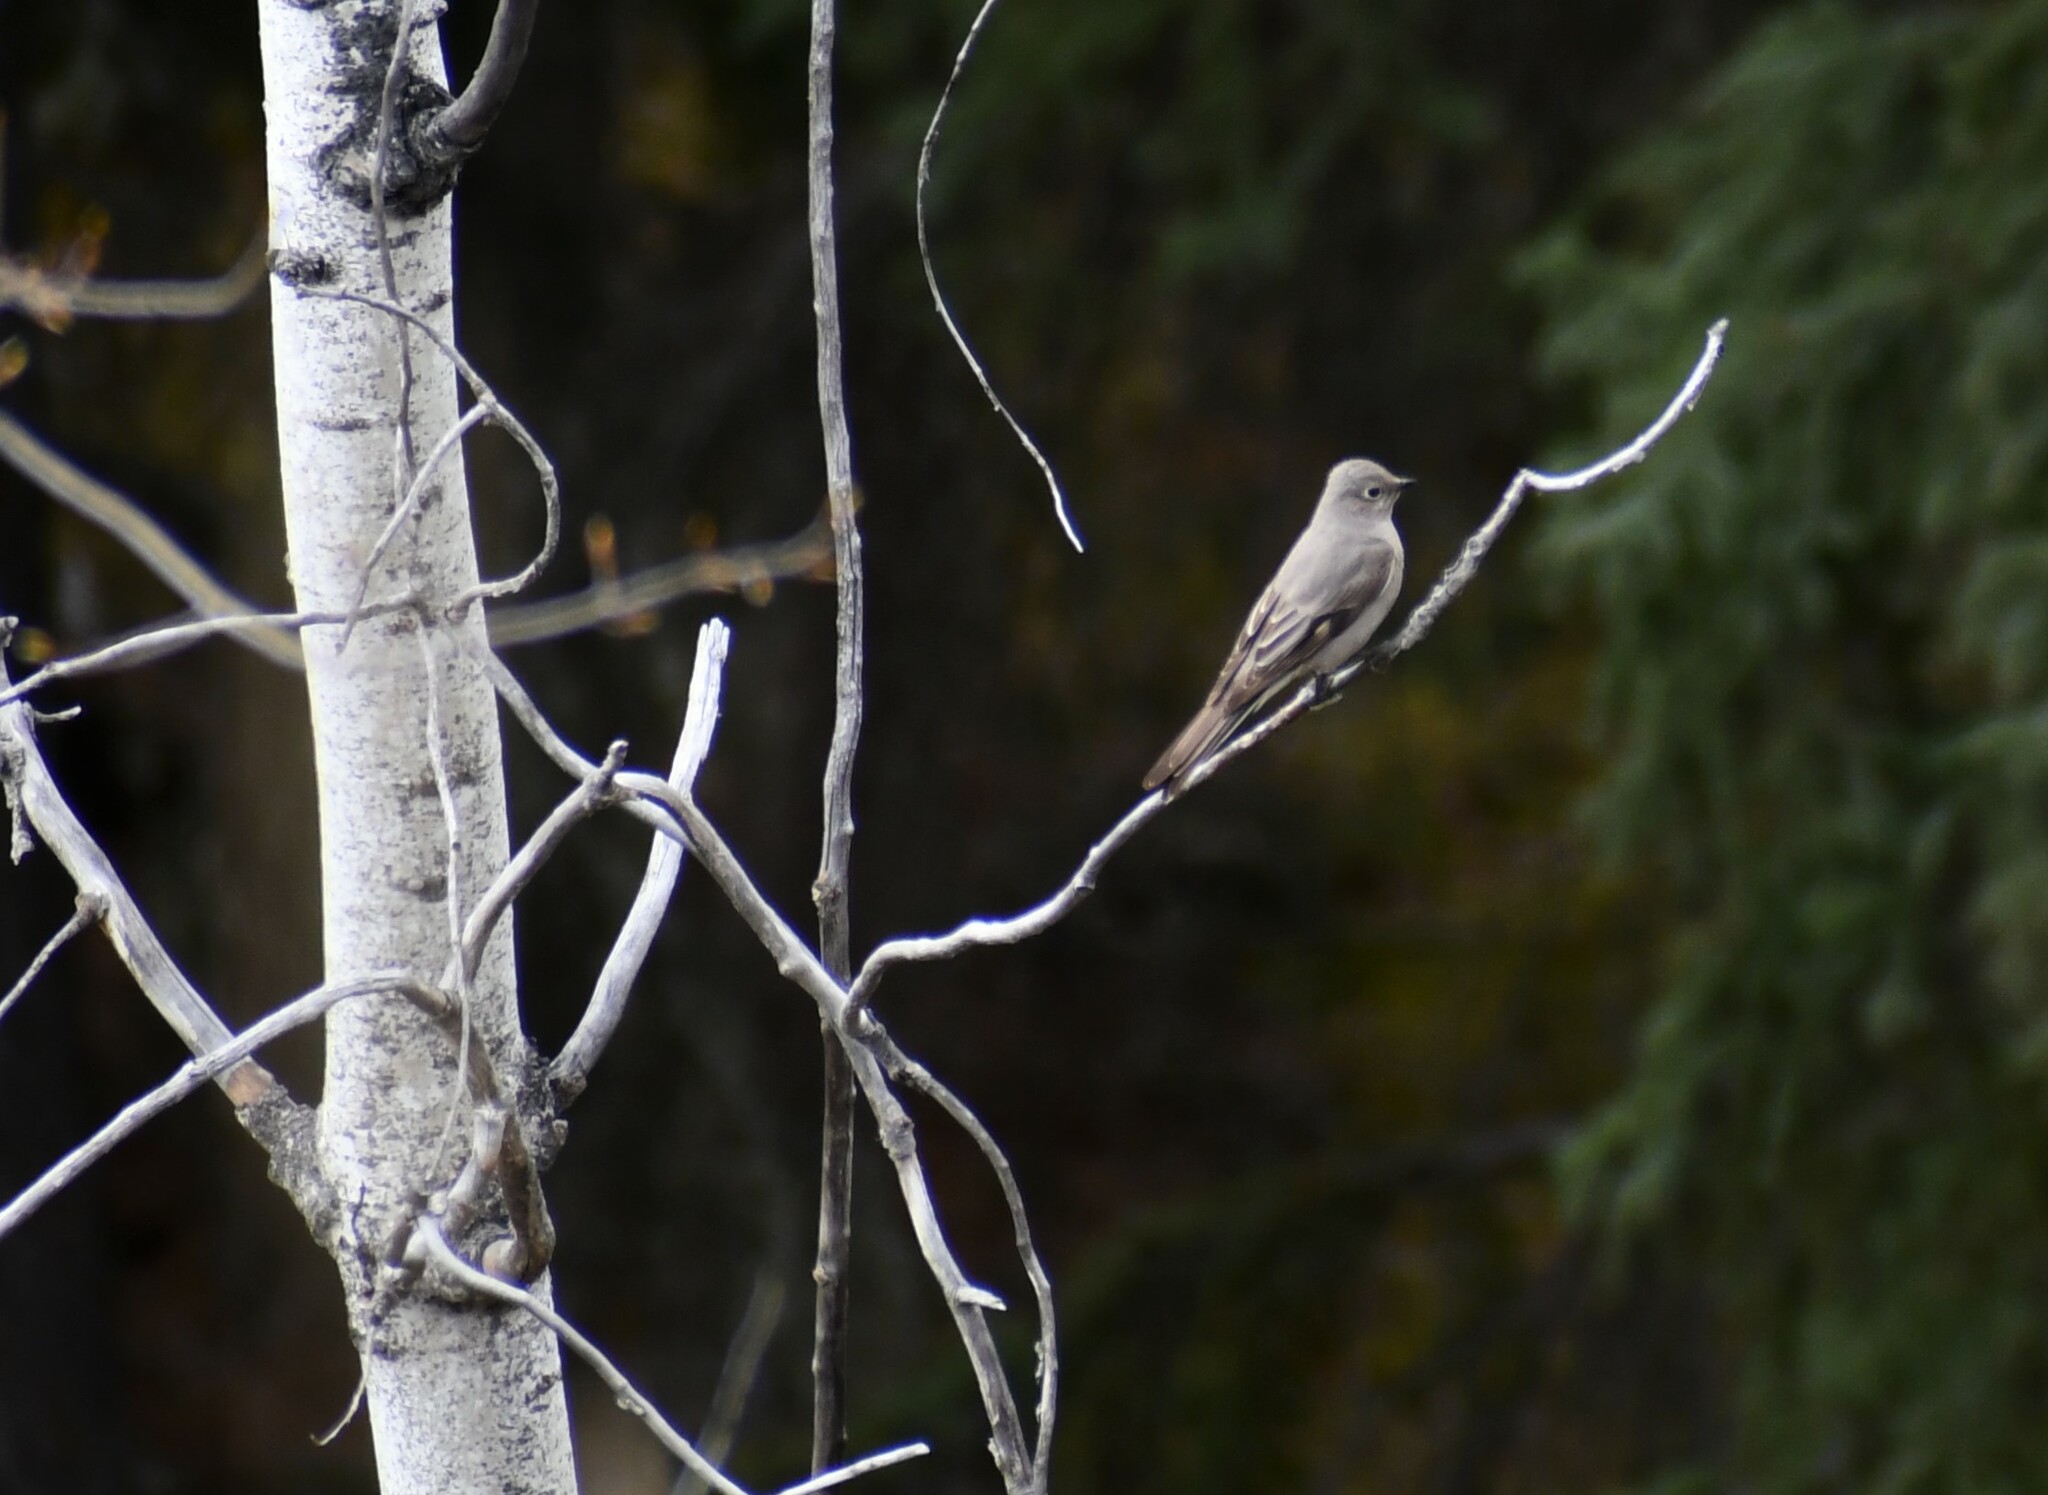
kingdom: Animalia
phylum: Chordata
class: Aves
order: Passeriformes
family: Turdidae
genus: Myadestes
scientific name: Myadestes townsendi
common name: Townsend's solitaire
